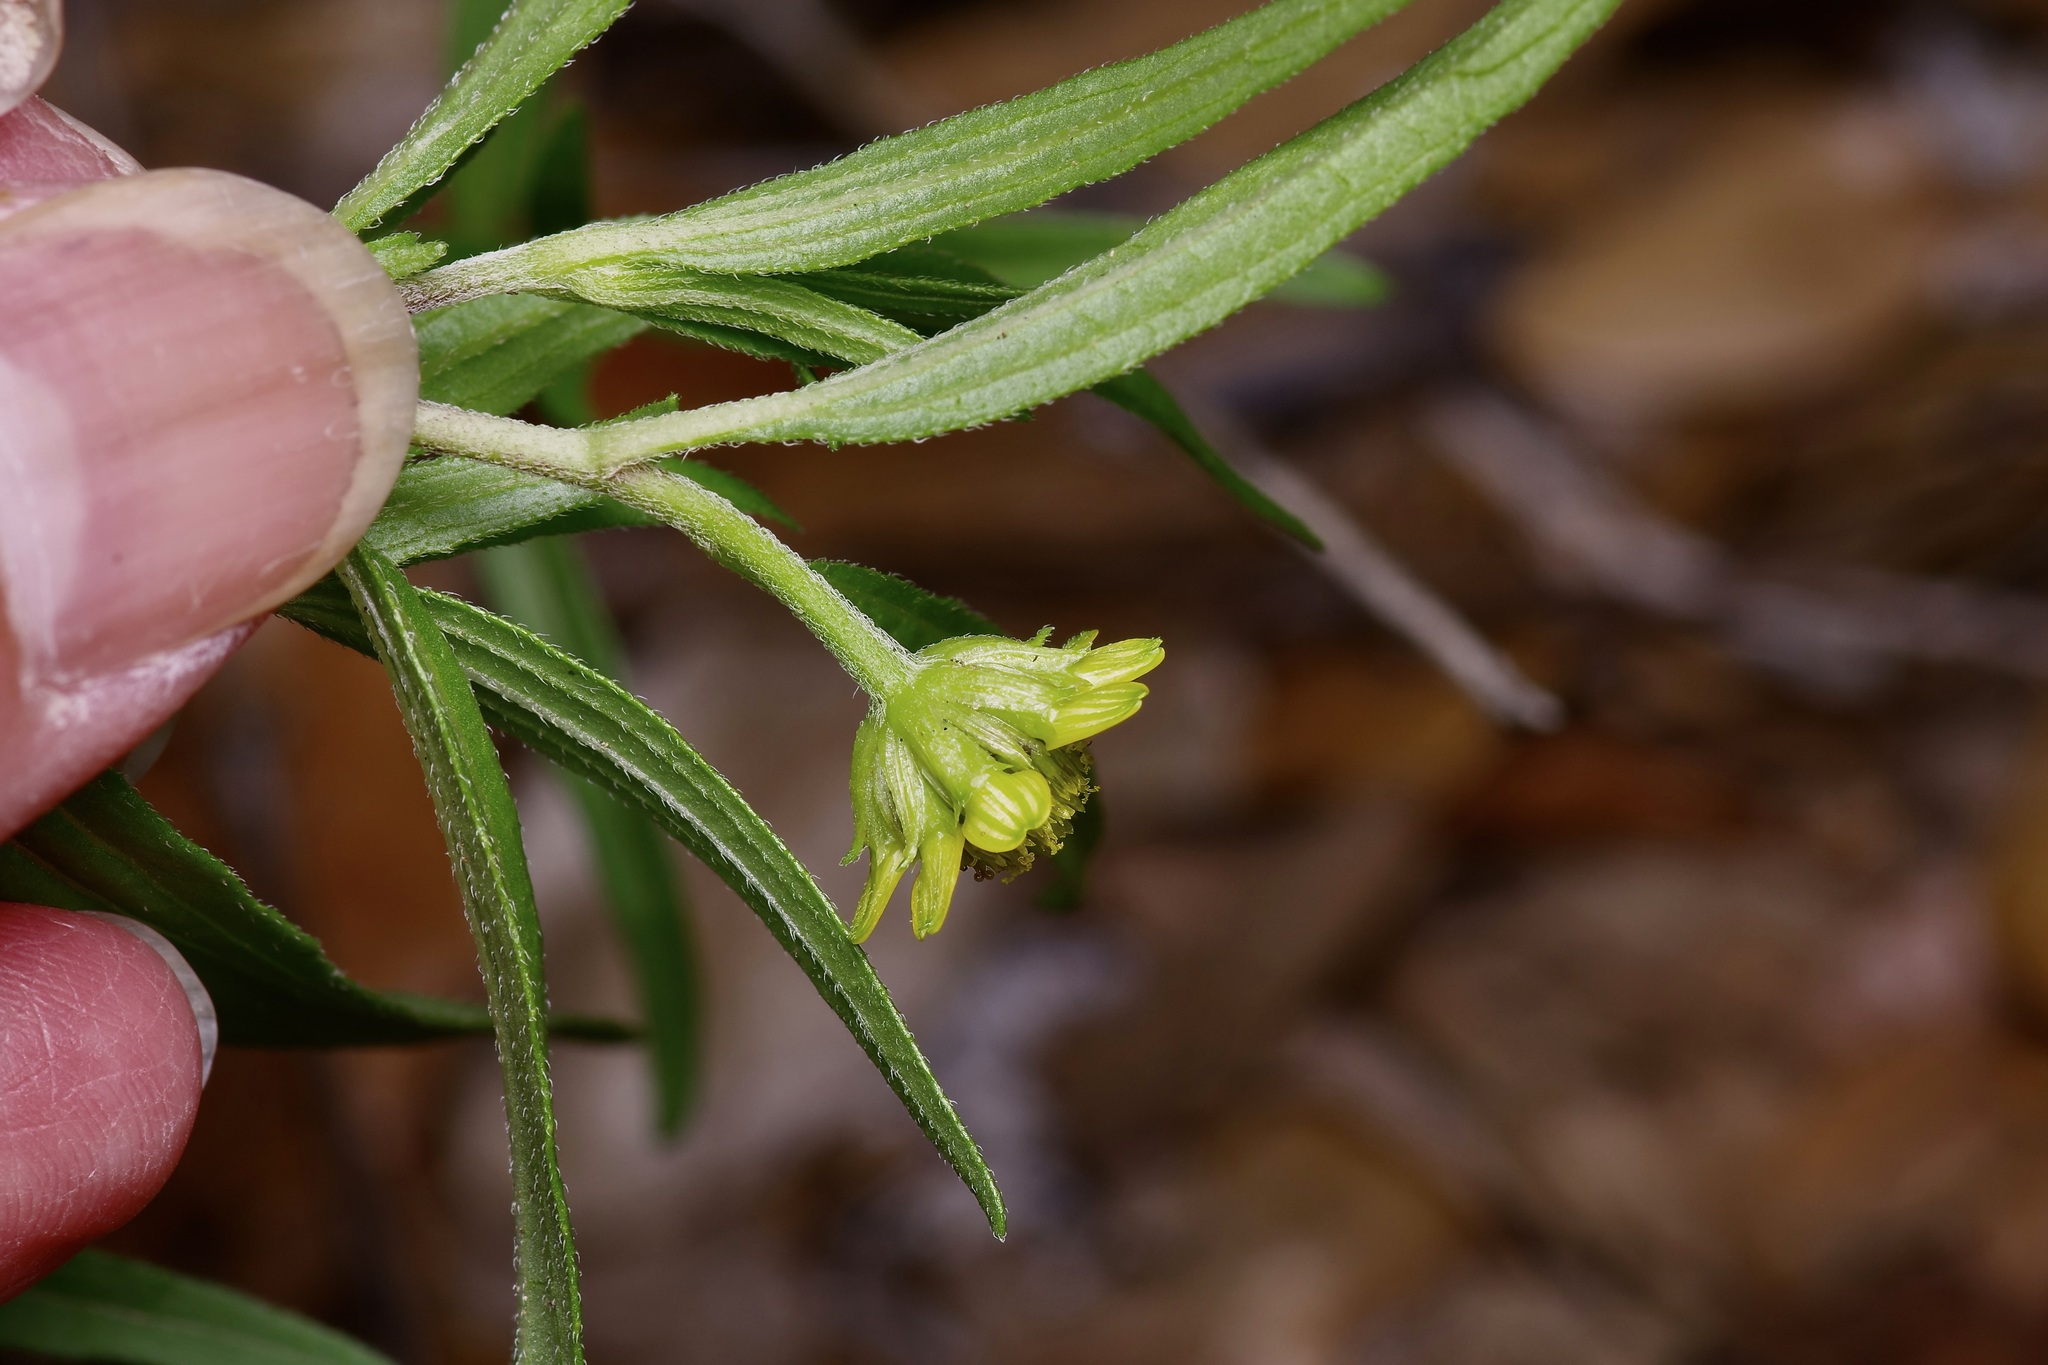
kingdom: Plantae
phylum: Tracheophyta
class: Magnoliopsida
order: Asterales
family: Asteraceae
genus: Sanvitalia
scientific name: Sanvitalia abertii
